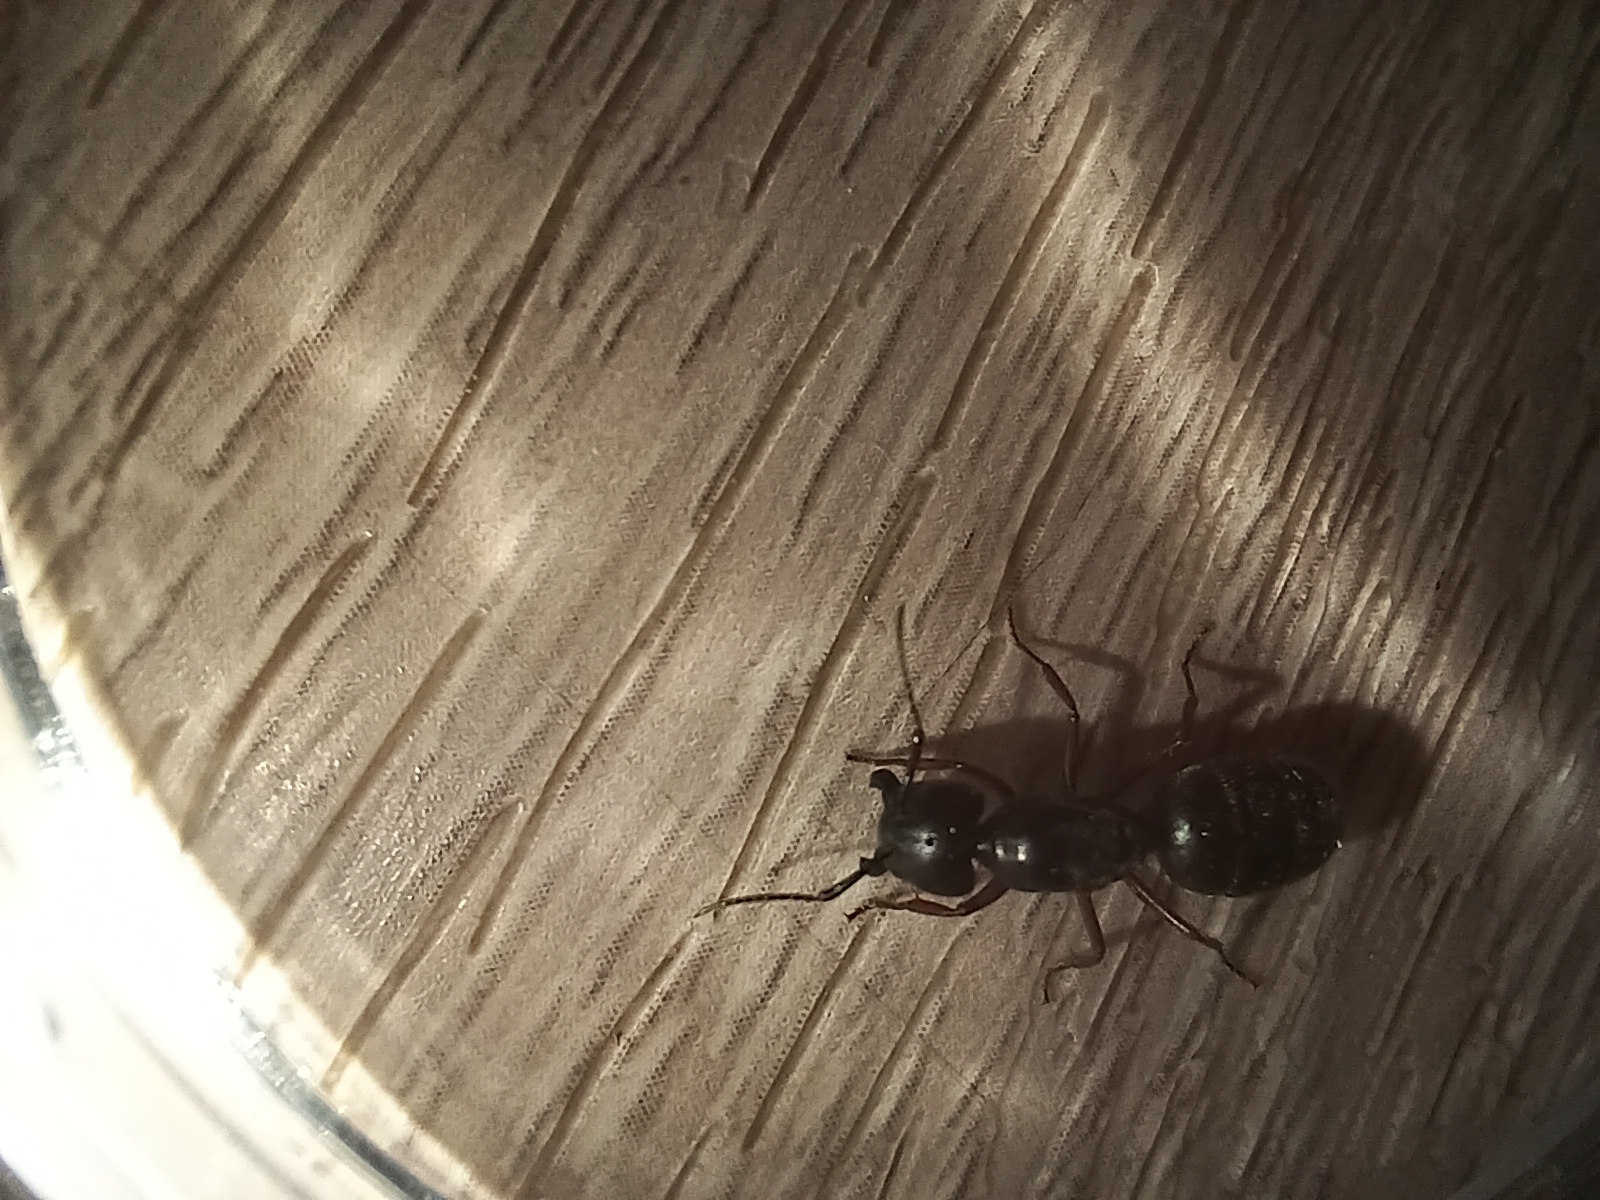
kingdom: Animalia
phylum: Arthropoda
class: Insecta
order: Hymenoptera
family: Formicidae
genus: Camponotus
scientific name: Camponotus herculeanus
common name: Hercules ant
